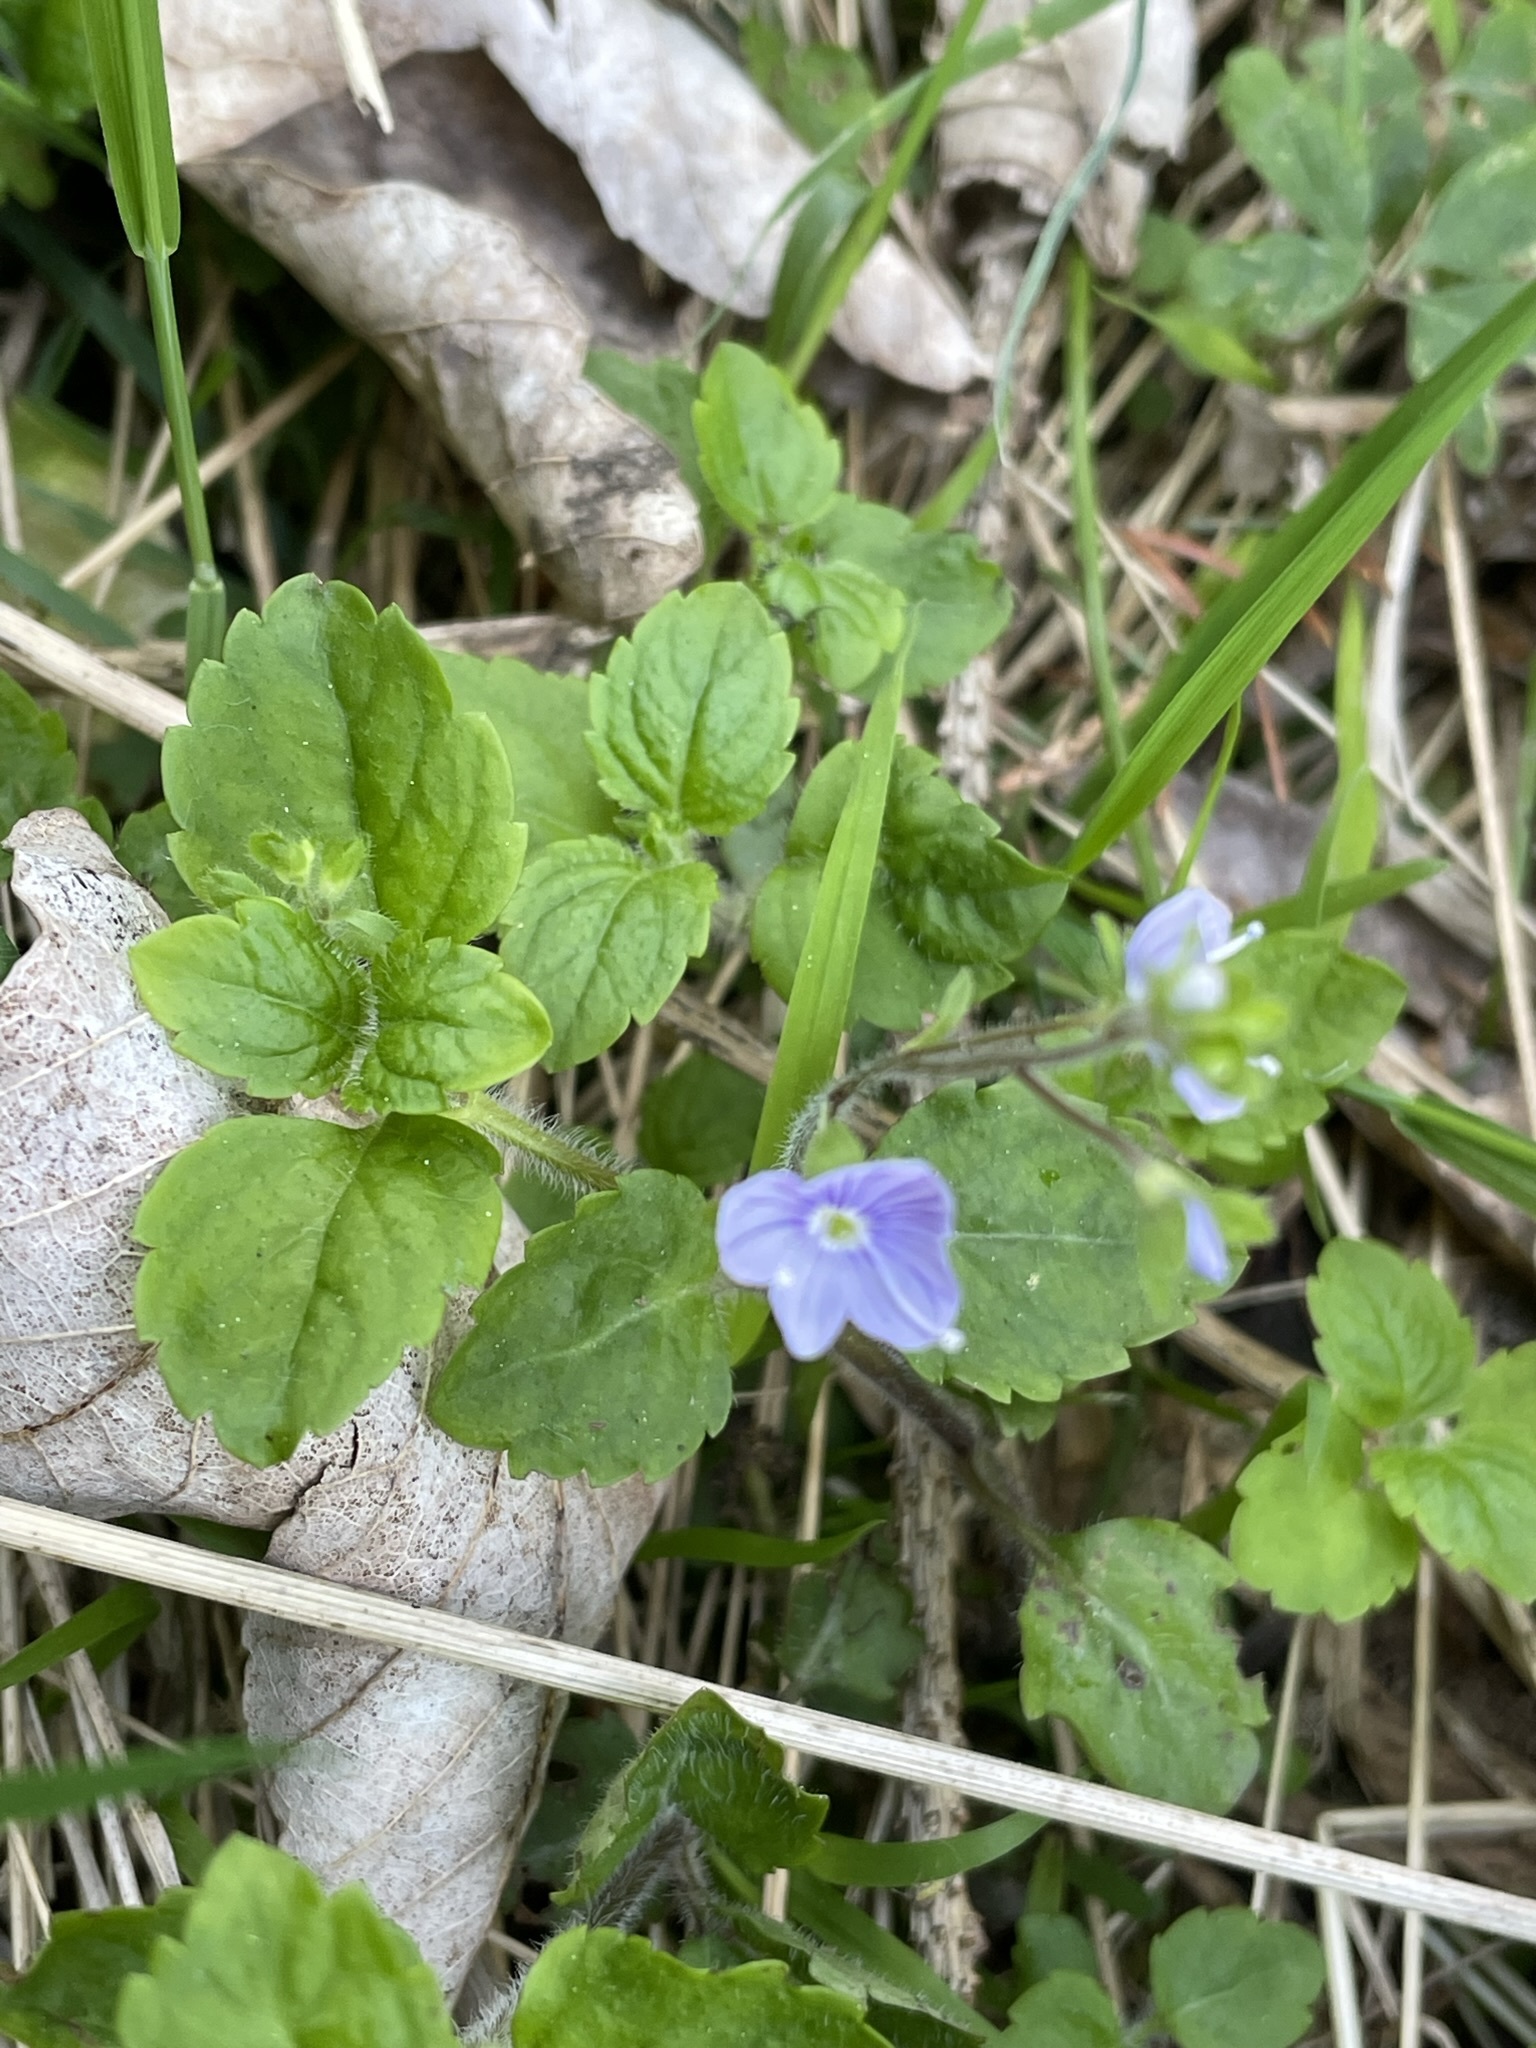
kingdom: Plantae
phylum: Tracheophyta
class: Magnoliopsida
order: Lamiales
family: Plantaginaceae
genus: Veronica
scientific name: Veronica montana
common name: Wood speedwell
